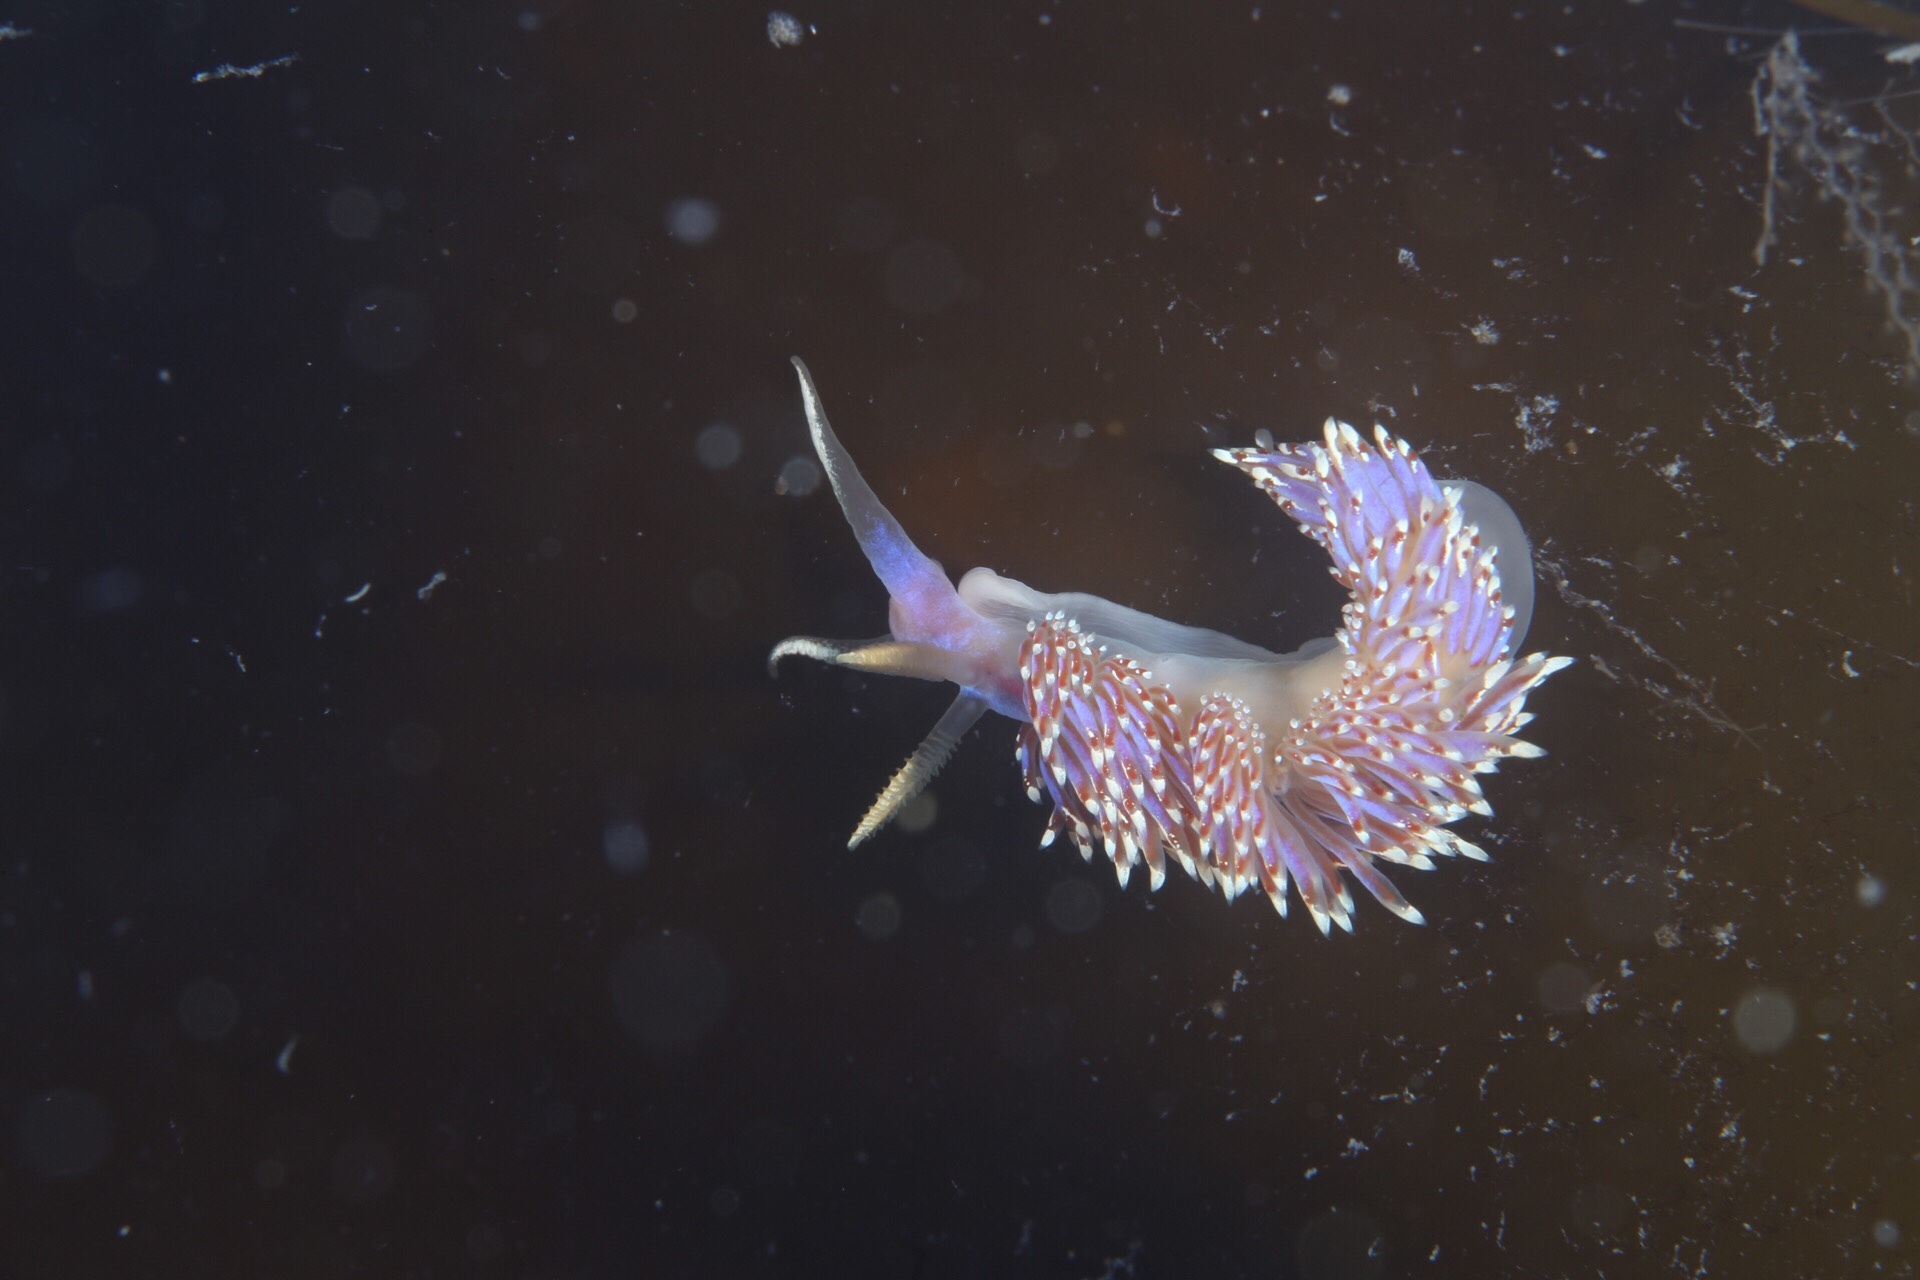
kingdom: Animalia
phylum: Mollusca
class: Gastropoda
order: Nudibranchia
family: Facelinidae
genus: Facelina
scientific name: Facelina auriculata
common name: Slender facelina
